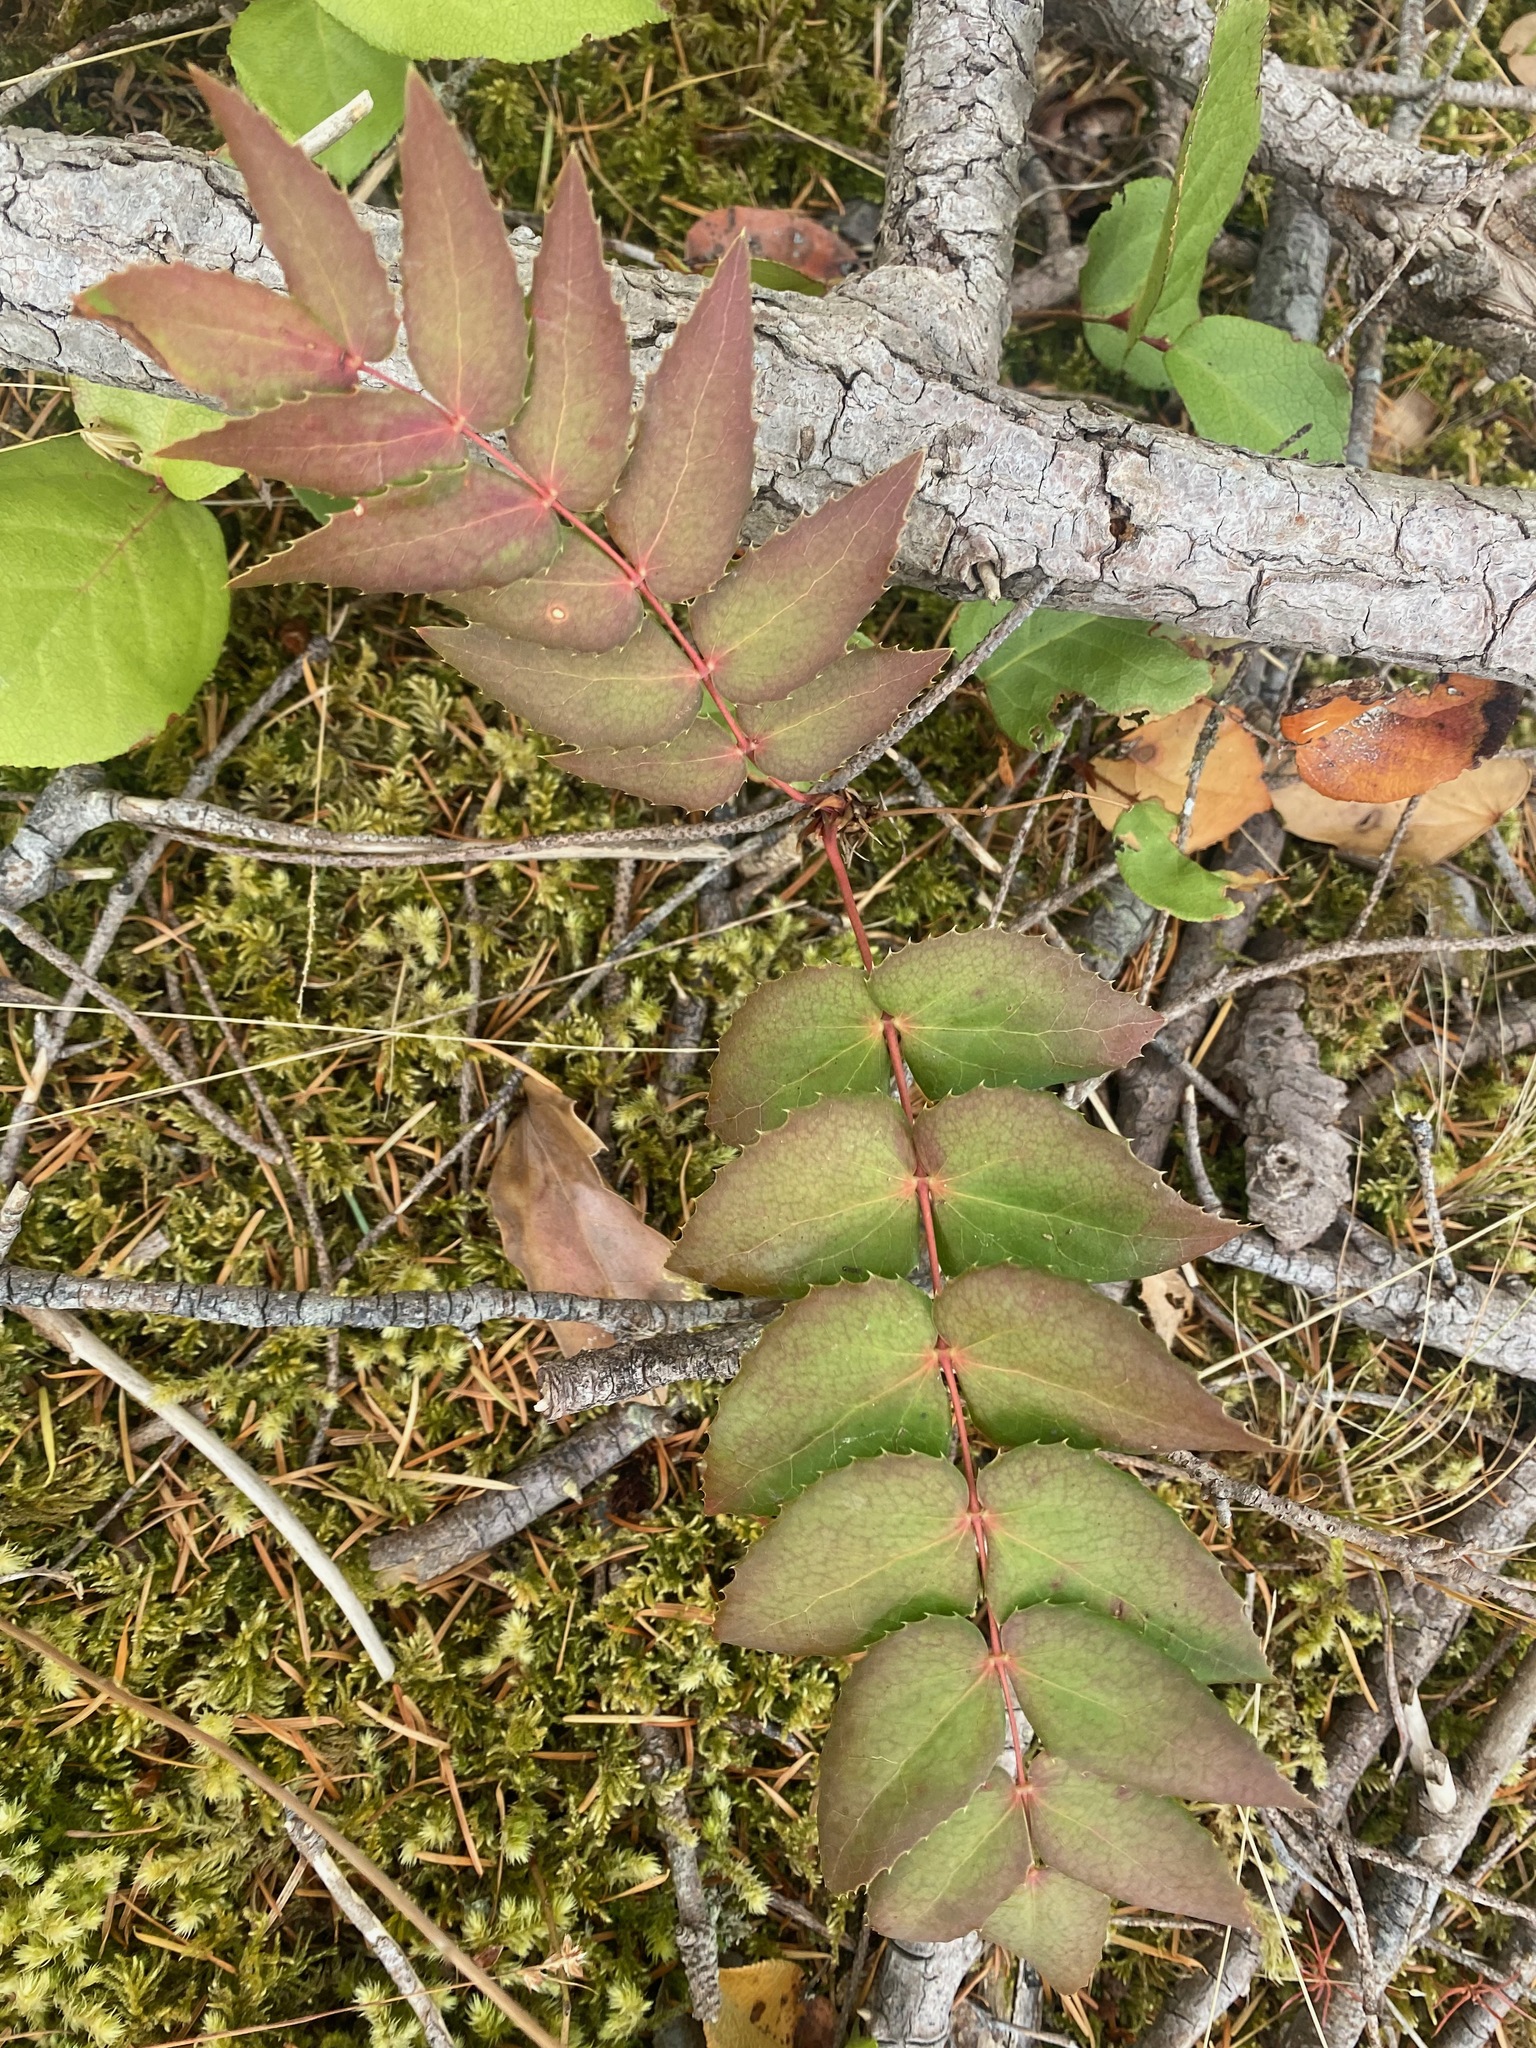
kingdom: Plantae
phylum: Tracheophyta
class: Magnoliopsida
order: Ranunculales
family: Berberidaceae
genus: Mahonia
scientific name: Mahonia nervosa
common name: Cascade oregon-grape
